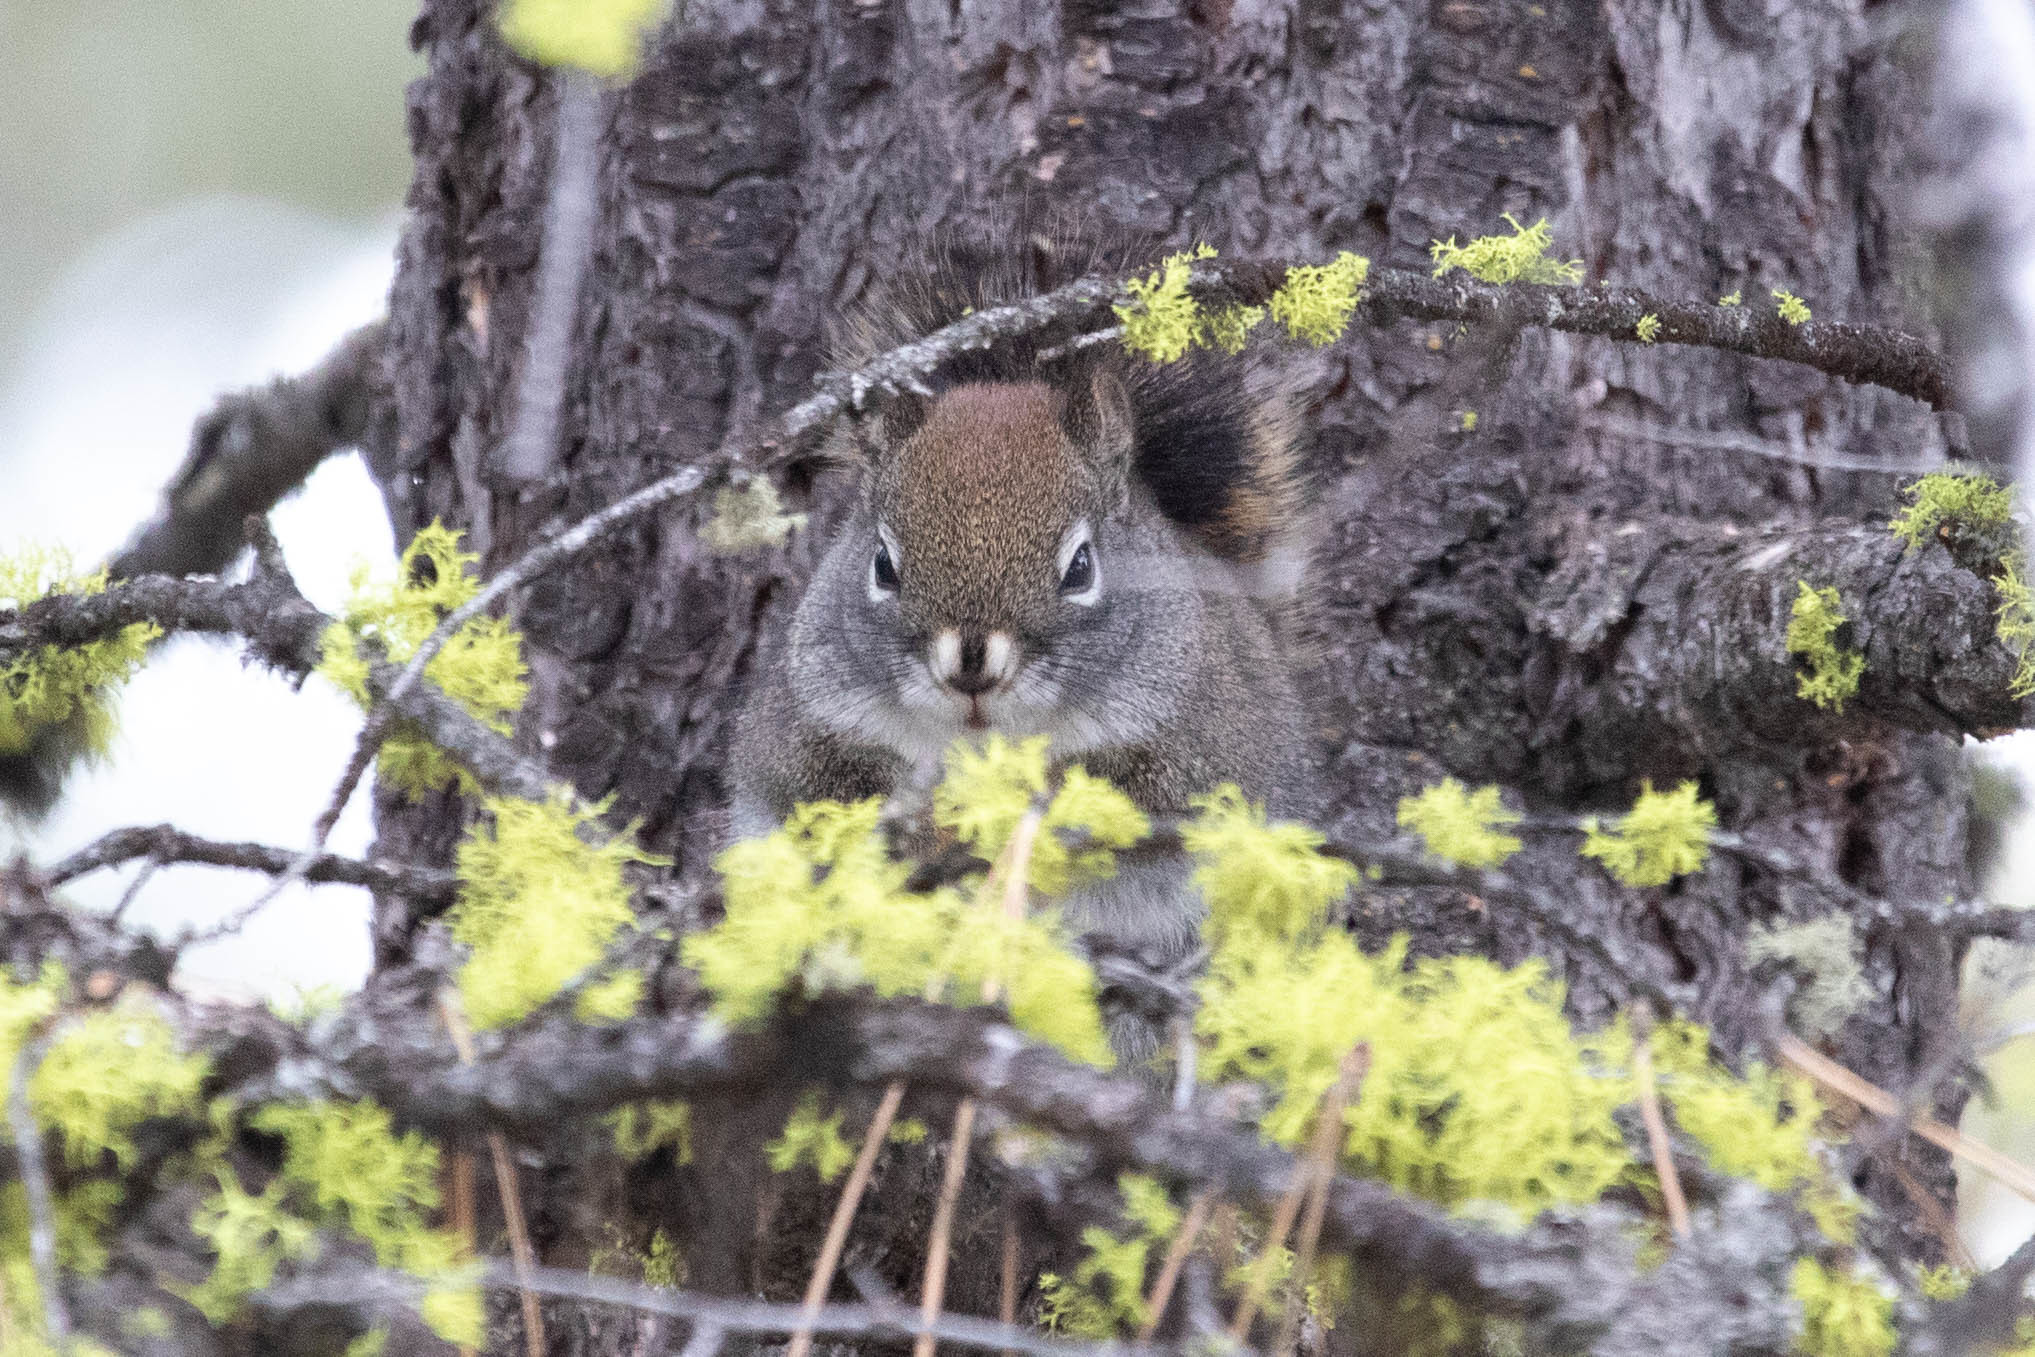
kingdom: Animalia
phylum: Chordata
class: Mammalia
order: Rodentia
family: Sciuridae
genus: Tamiasciurus
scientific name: Tamiasciurus hudsonicus
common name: Red squirrel
